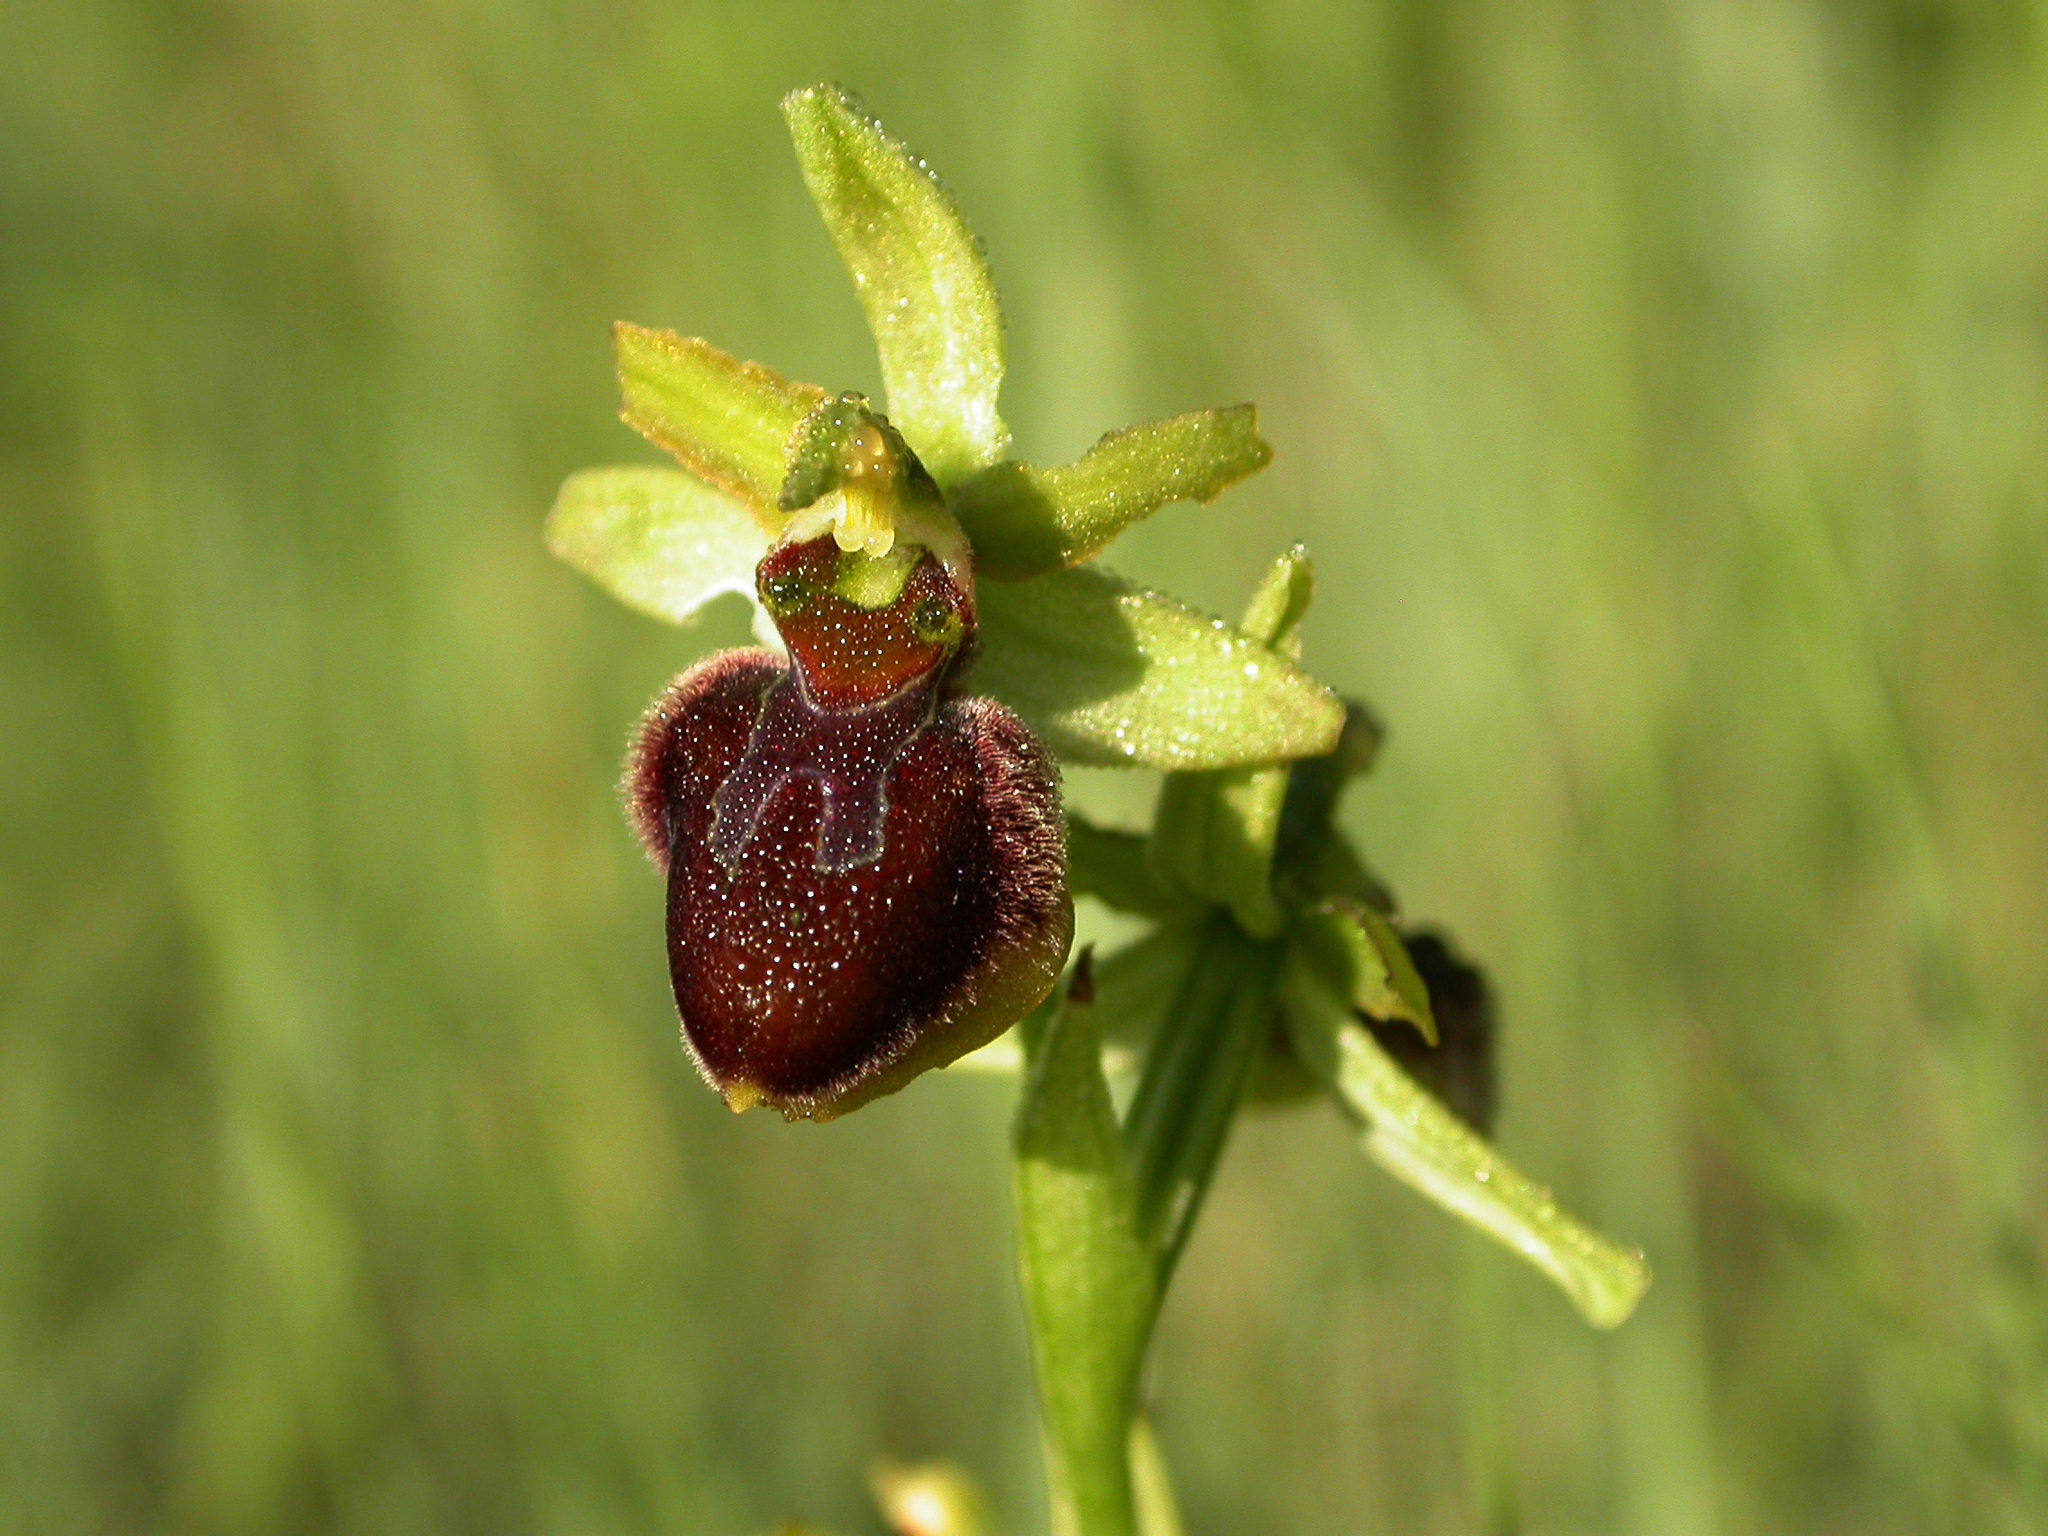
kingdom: Plantae
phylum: Tracheophyta
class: Liliopsida
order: Asparagales
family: Orchidaceae
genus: Ophrys
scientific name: Ophrys sphegodes
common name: Early spider-orchid
